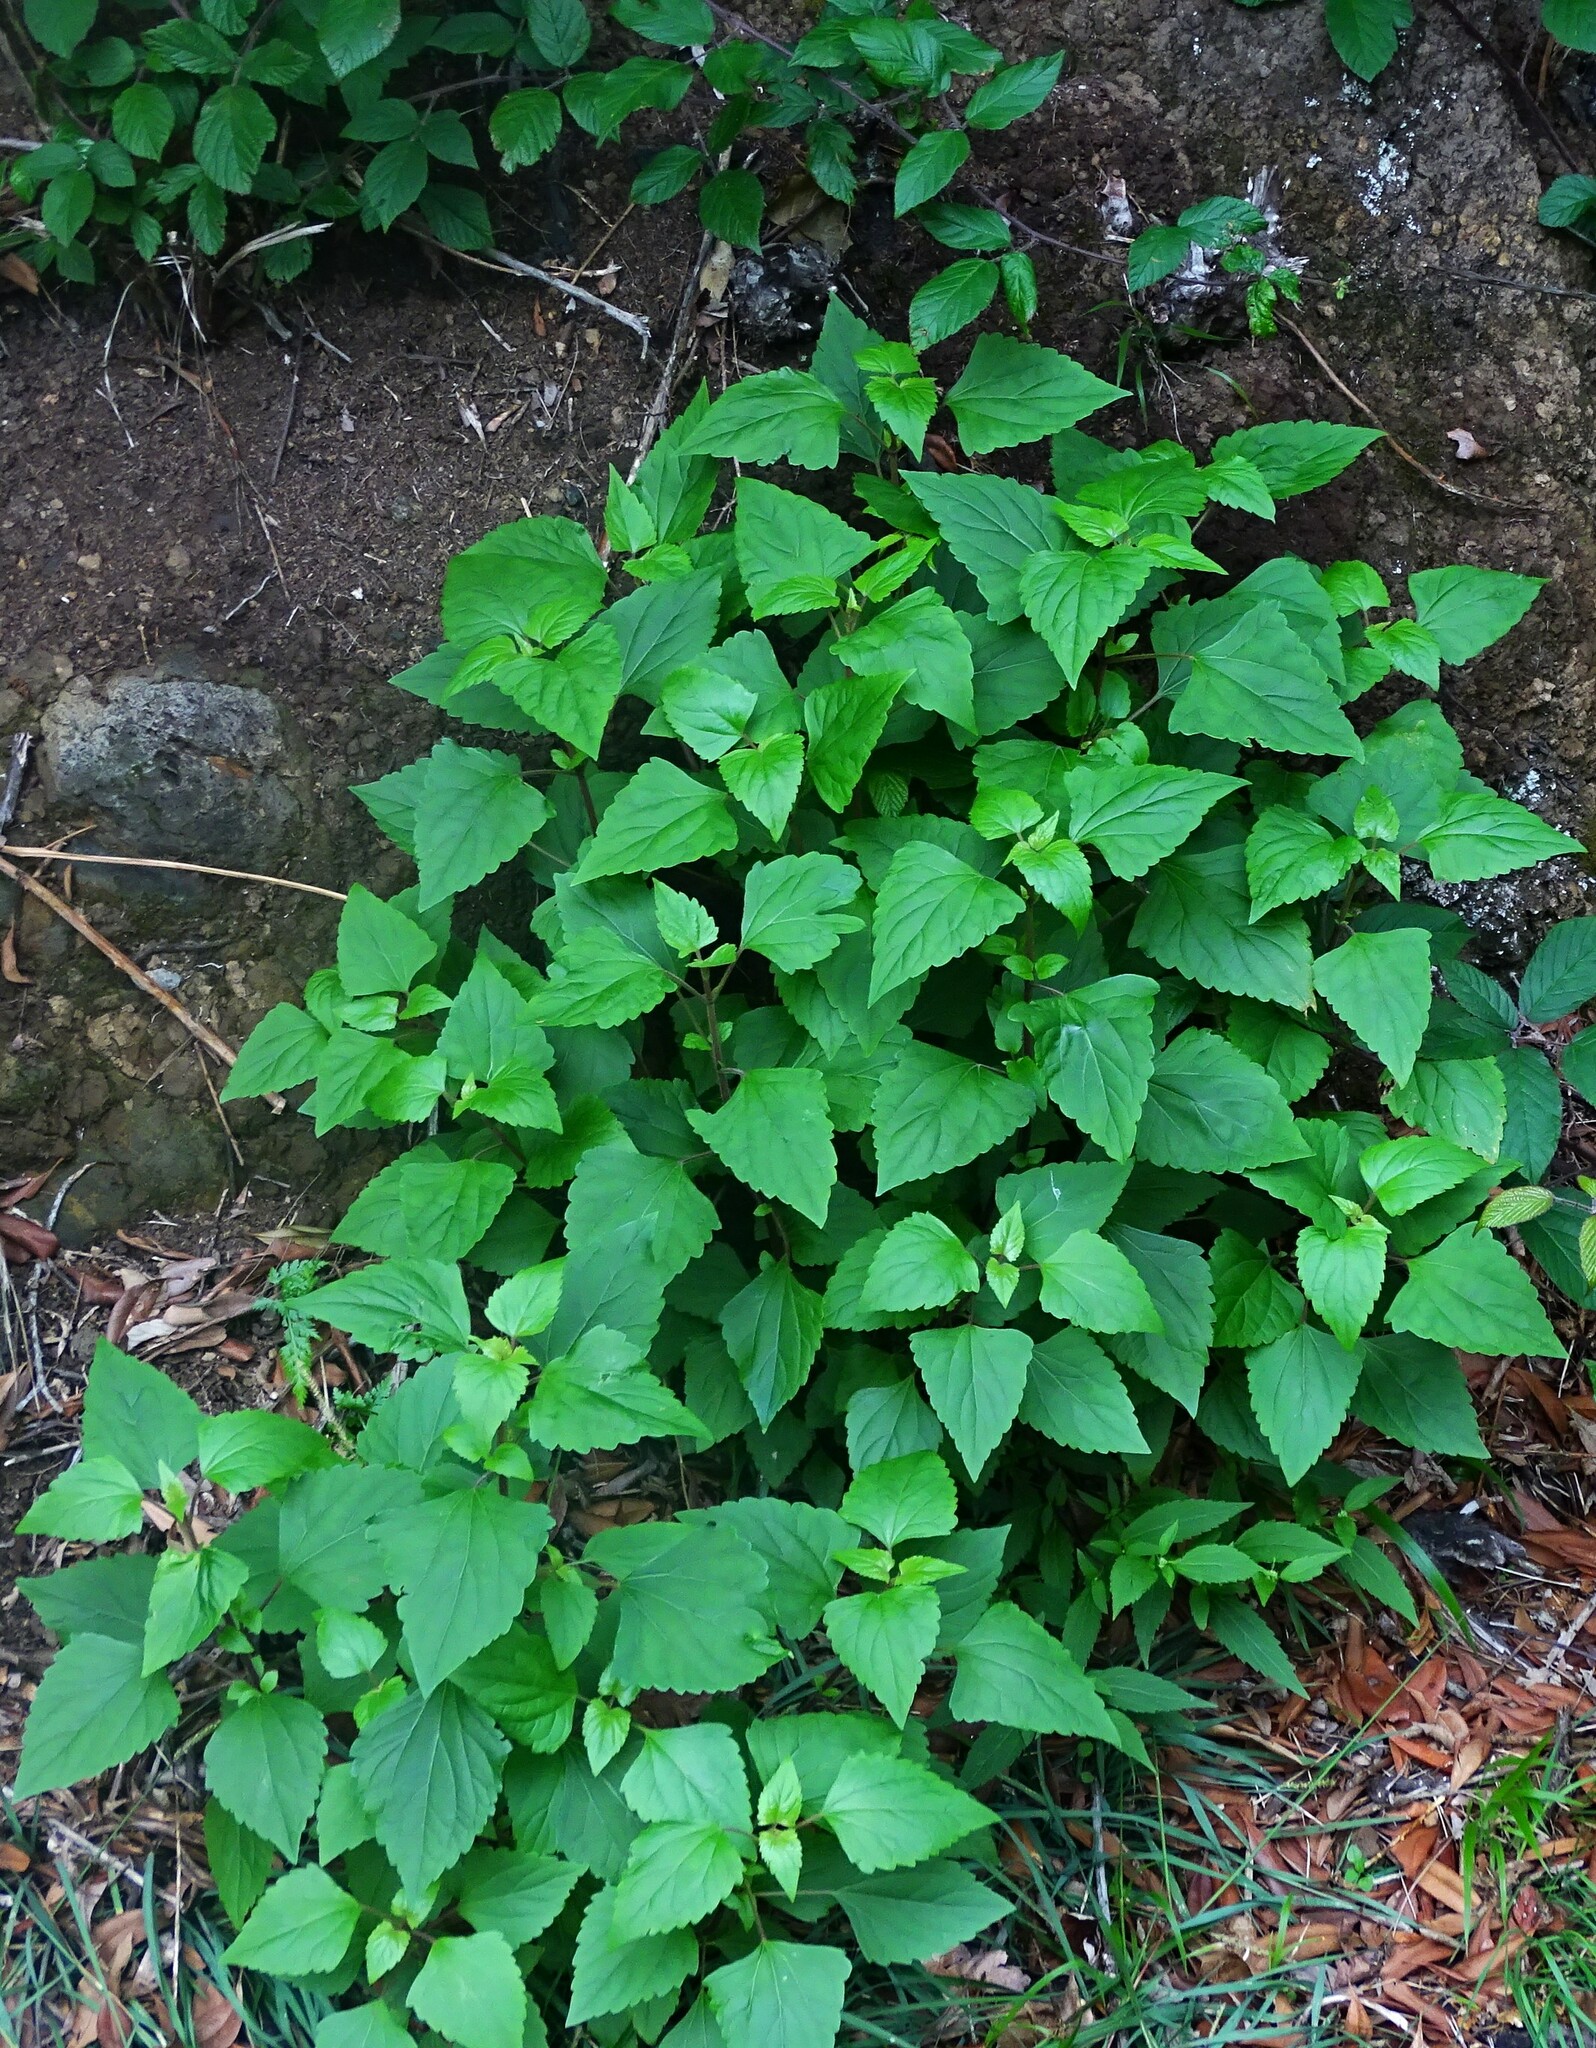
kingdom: Plantae
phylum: Tracheophyta
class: Magnoliopsida
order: Asterales
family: Asteraceae
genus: Ageratina
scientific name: Ageratina adenophora
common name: Sticky snakeroot
